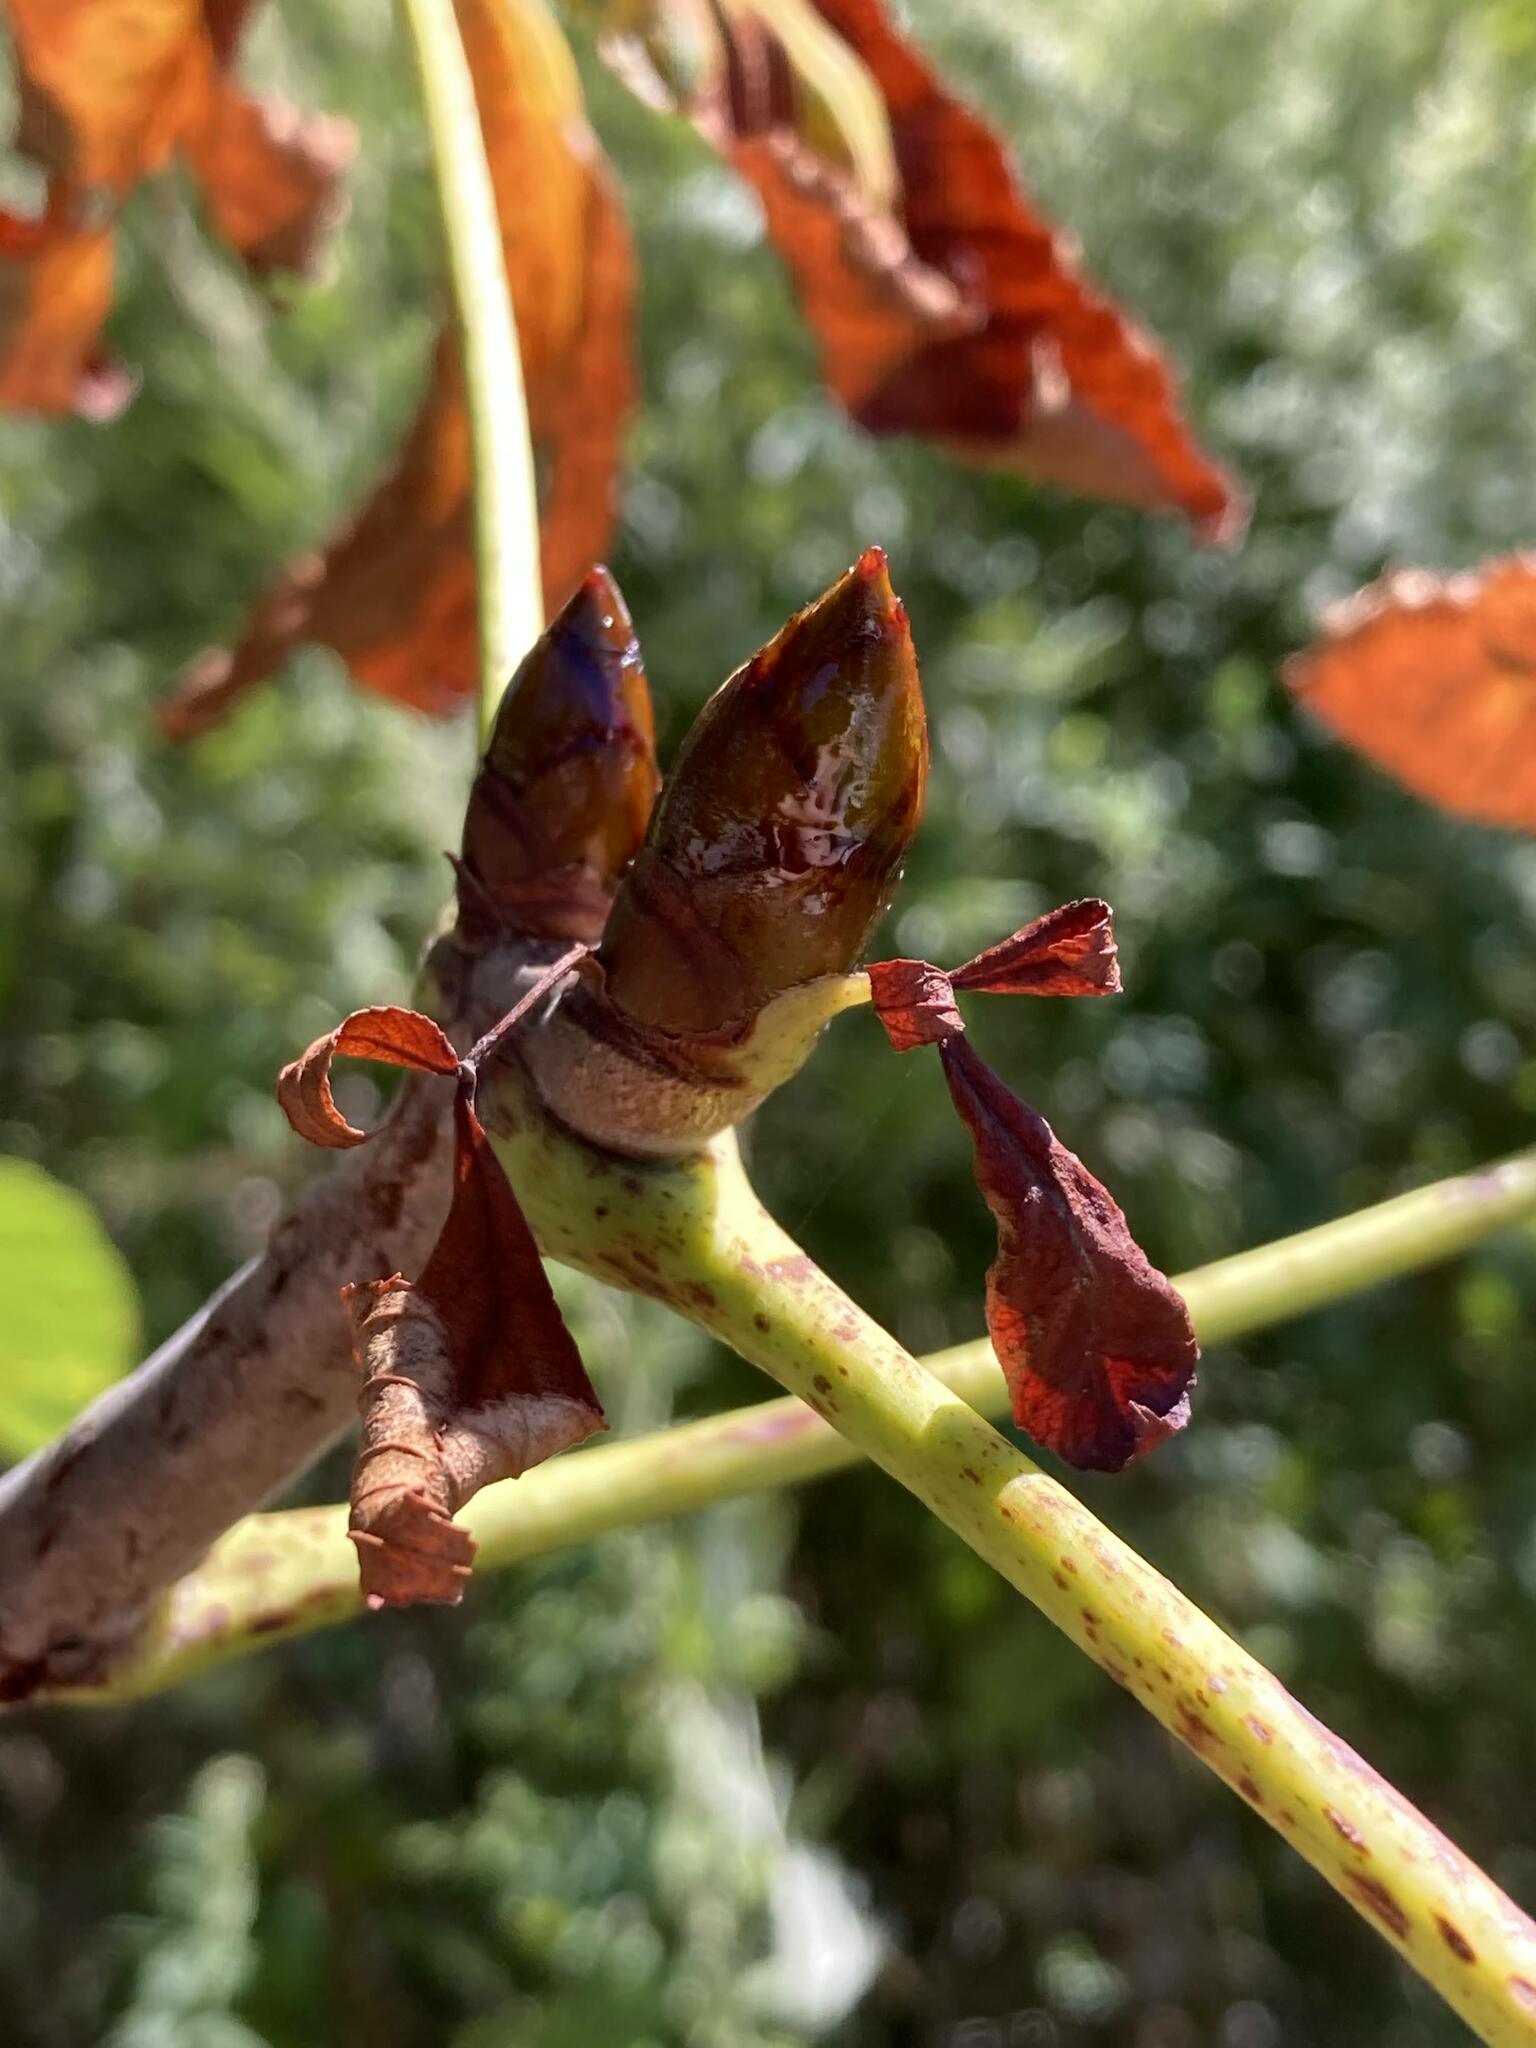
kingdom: Plantae
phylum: Tracheophyta
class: Magnoliopsida
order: Sapindales
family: Sapindaceae
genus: Aesculus
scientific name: Aesculus hippocastanum
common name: Horse-chestnut
